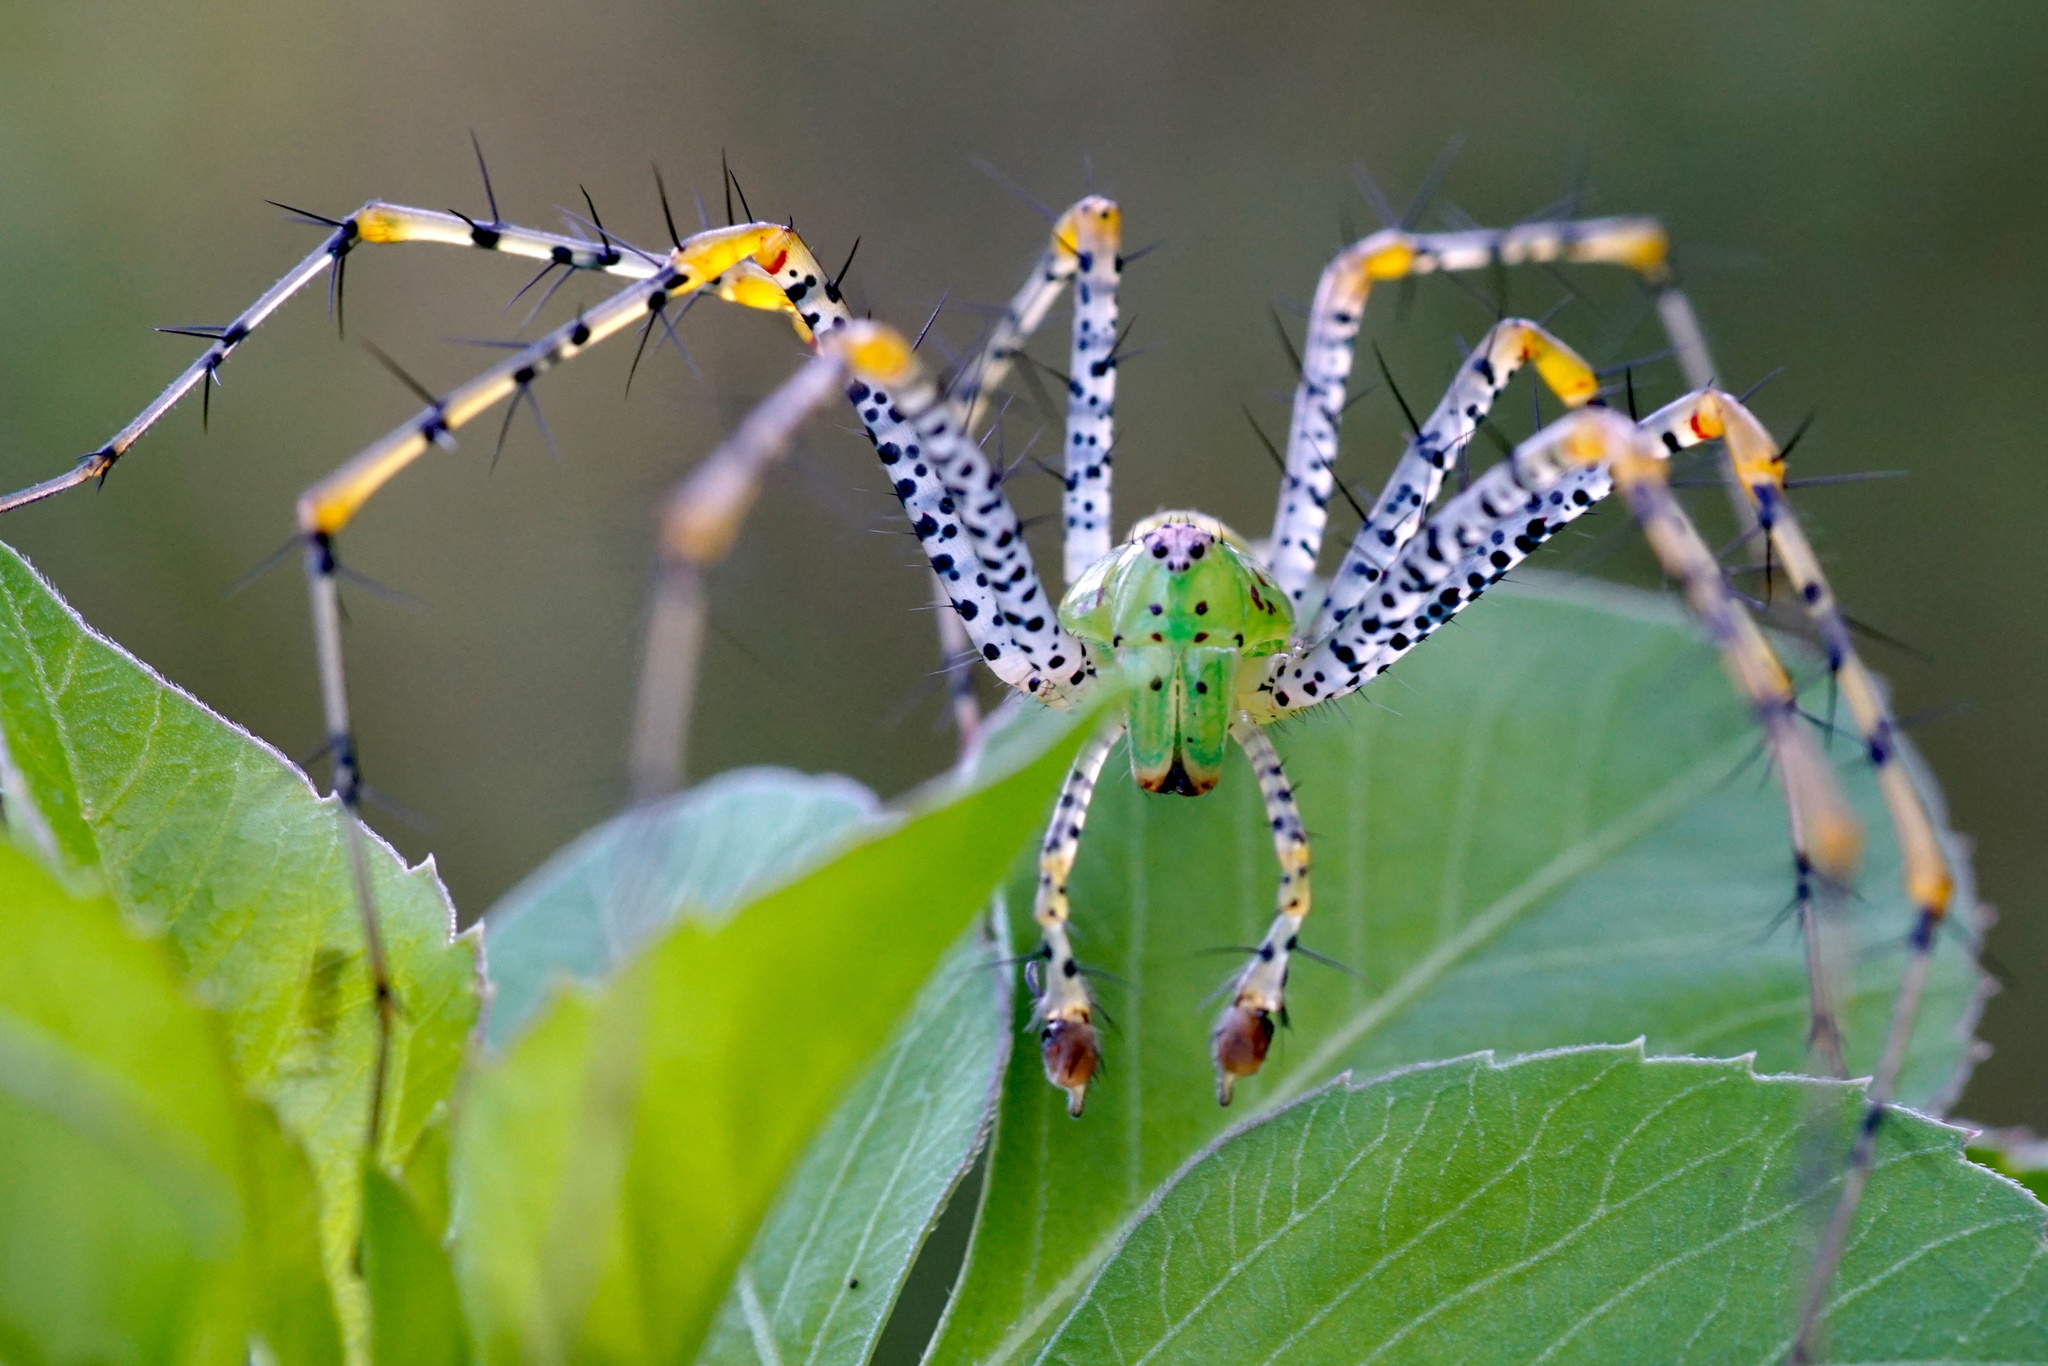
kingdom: Animalia
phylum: Arthropoda
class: Arachnida
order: Araneae
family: Oxyopidae
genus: Peucetia
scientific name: Peucetia viridans
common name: Lynx spiders
